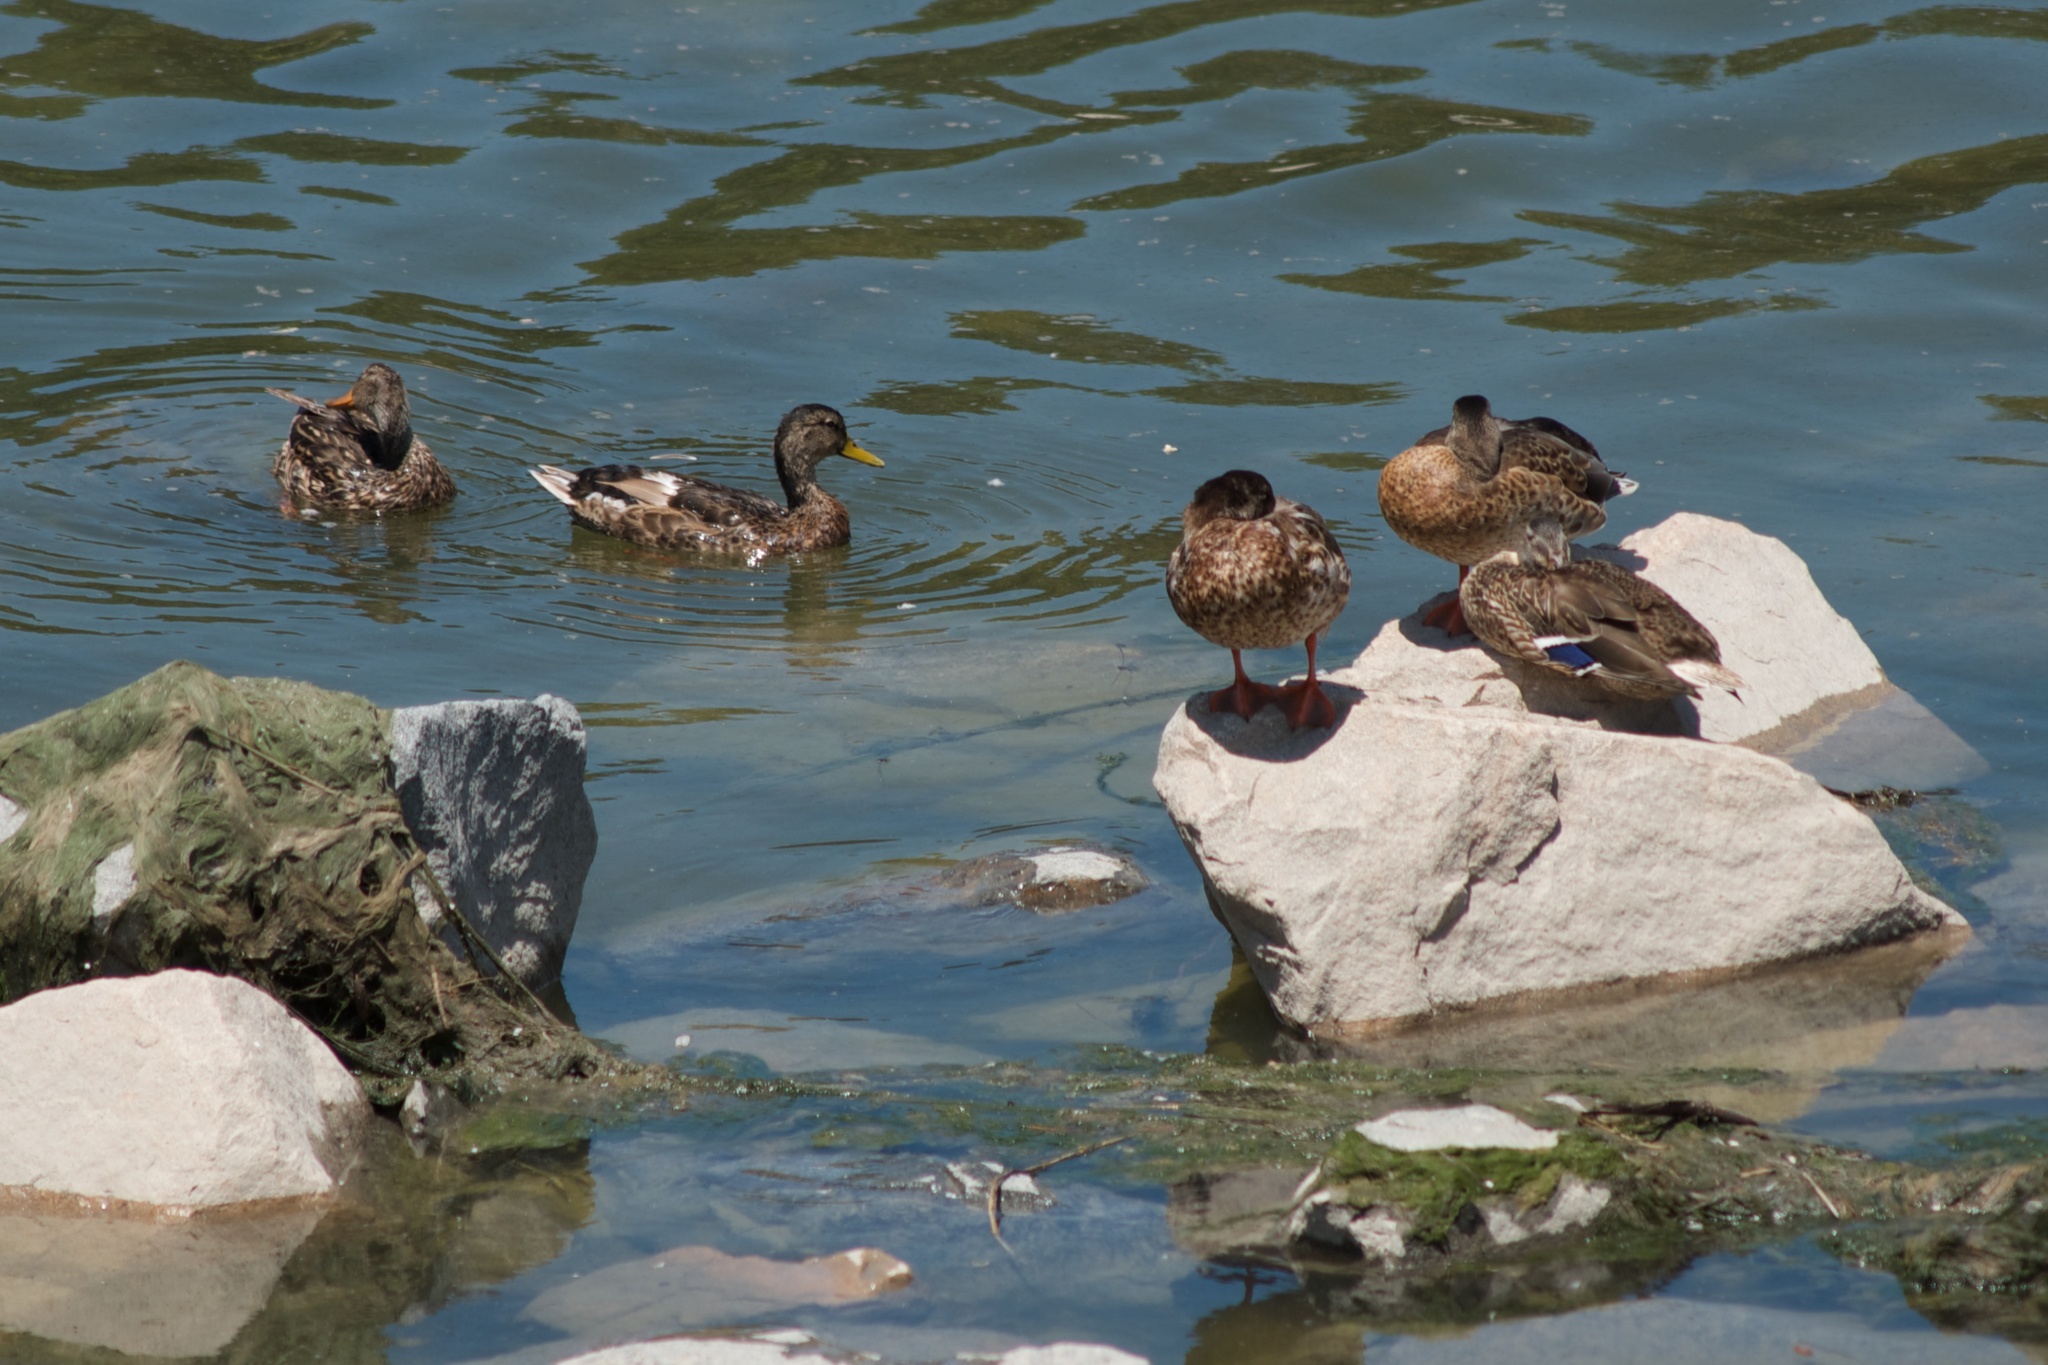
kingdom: Animalia
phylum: Chordata
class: Aves
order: Anseriformes
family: Anatidae
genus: Anas
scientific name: Anas platyrhynchos
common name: Mallard
